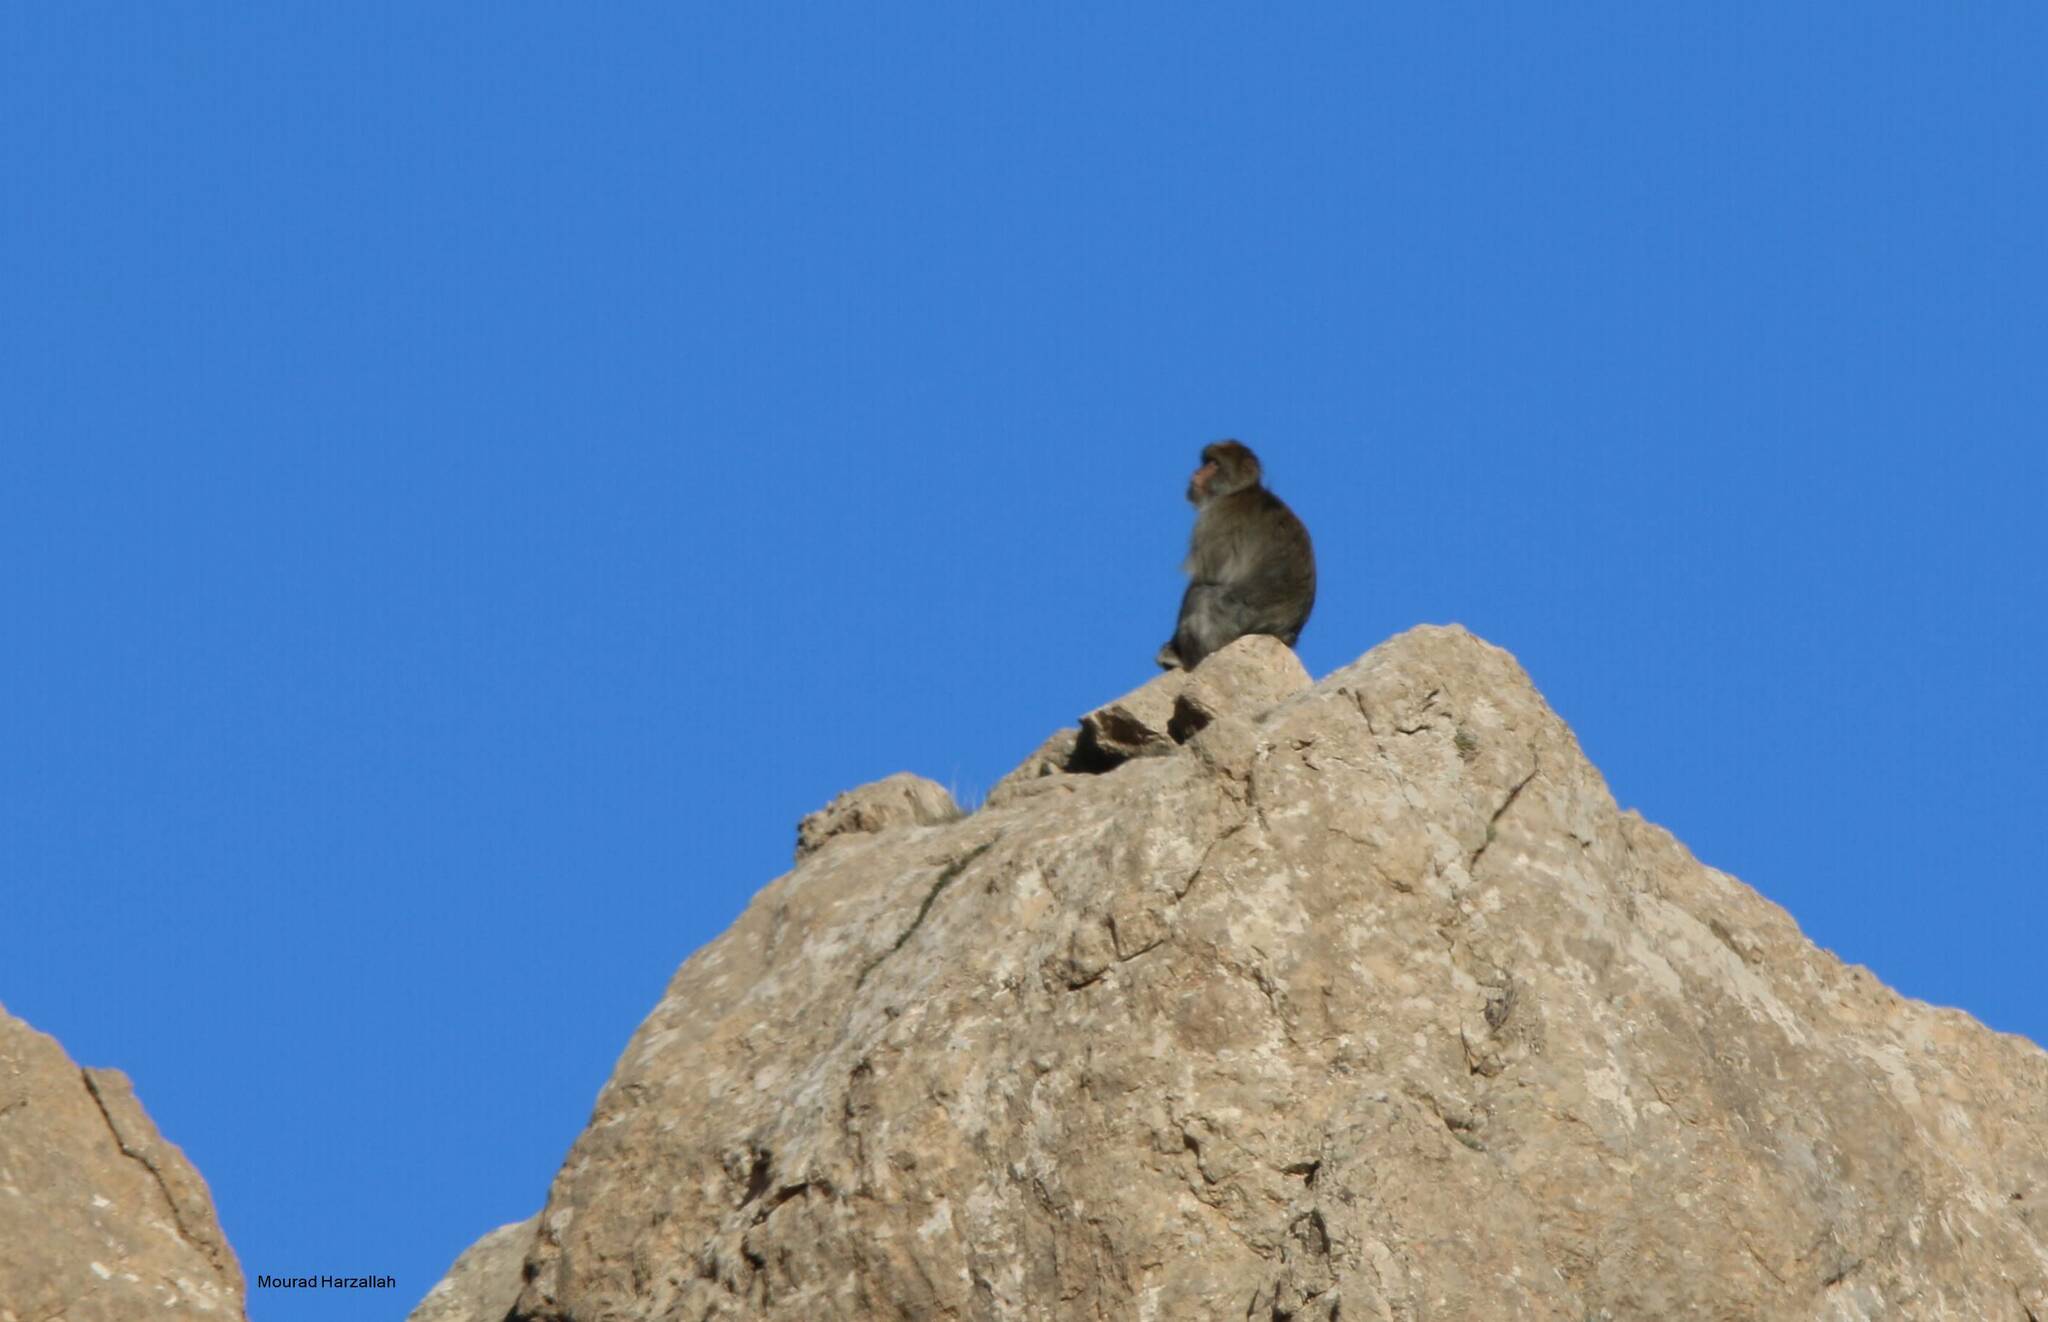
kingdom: Animalia
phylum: Chordata
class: Mammalia
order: Primates
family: Cercopithecidae
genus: Macaca
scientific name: Macaca sylvanus
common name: Barbary macaque
